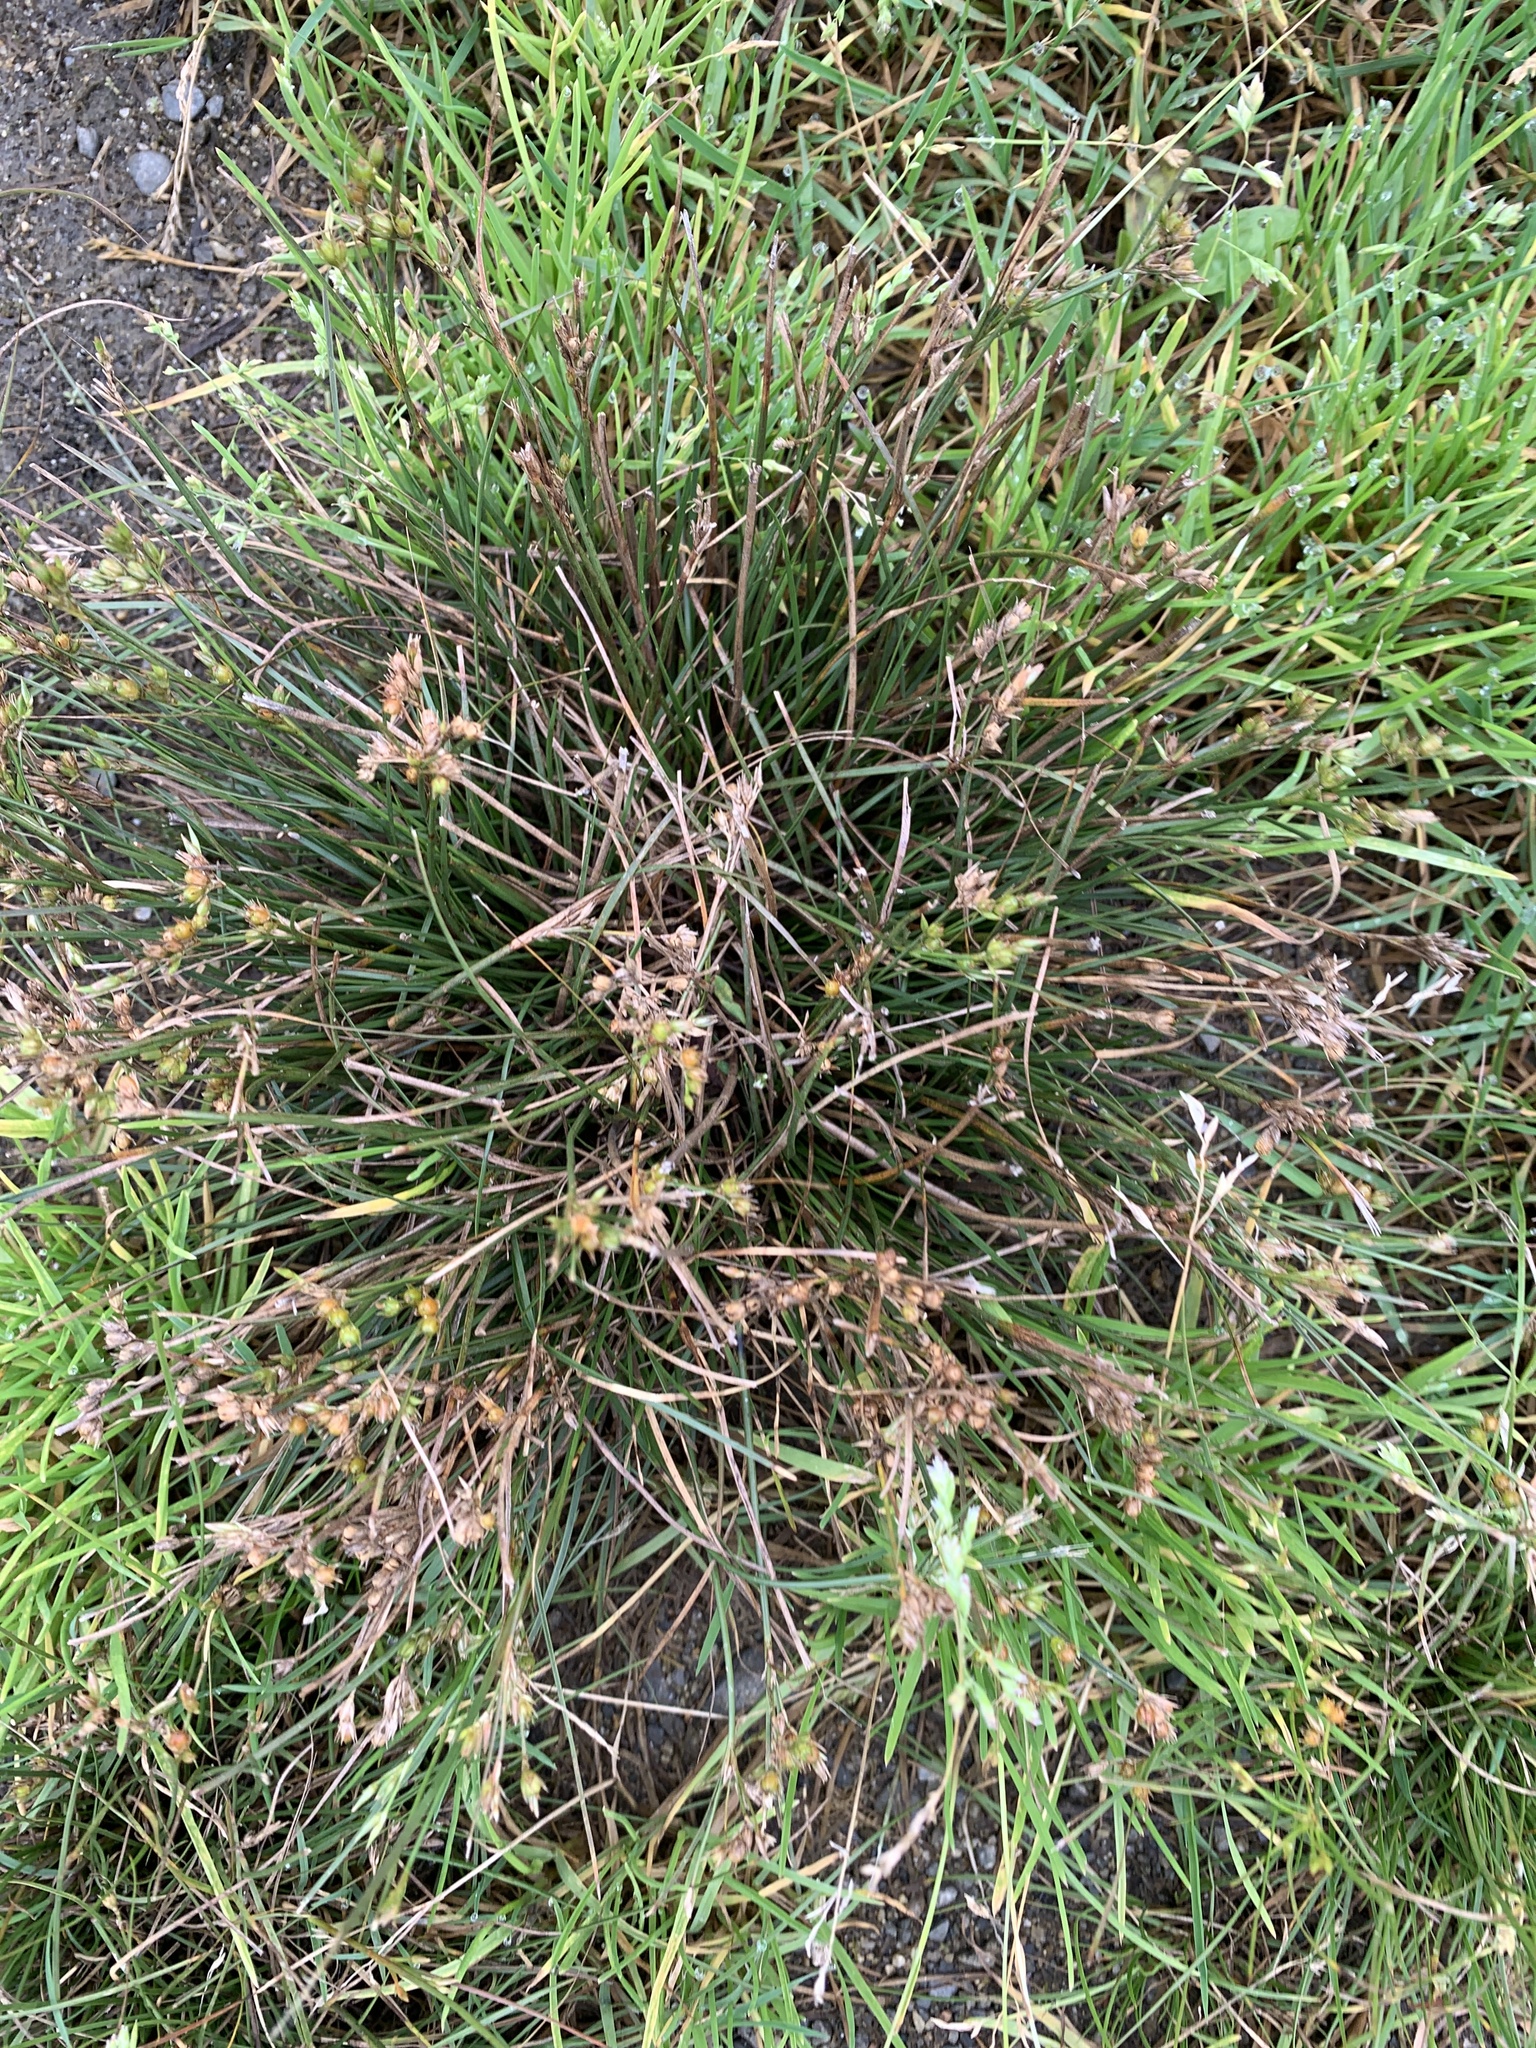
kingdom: Plantae
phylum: Tracheophyta
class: Liliopsida
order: Poales
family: Juncaceae
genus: Juncus
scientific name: Juncus tenuis
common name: Slender rush
